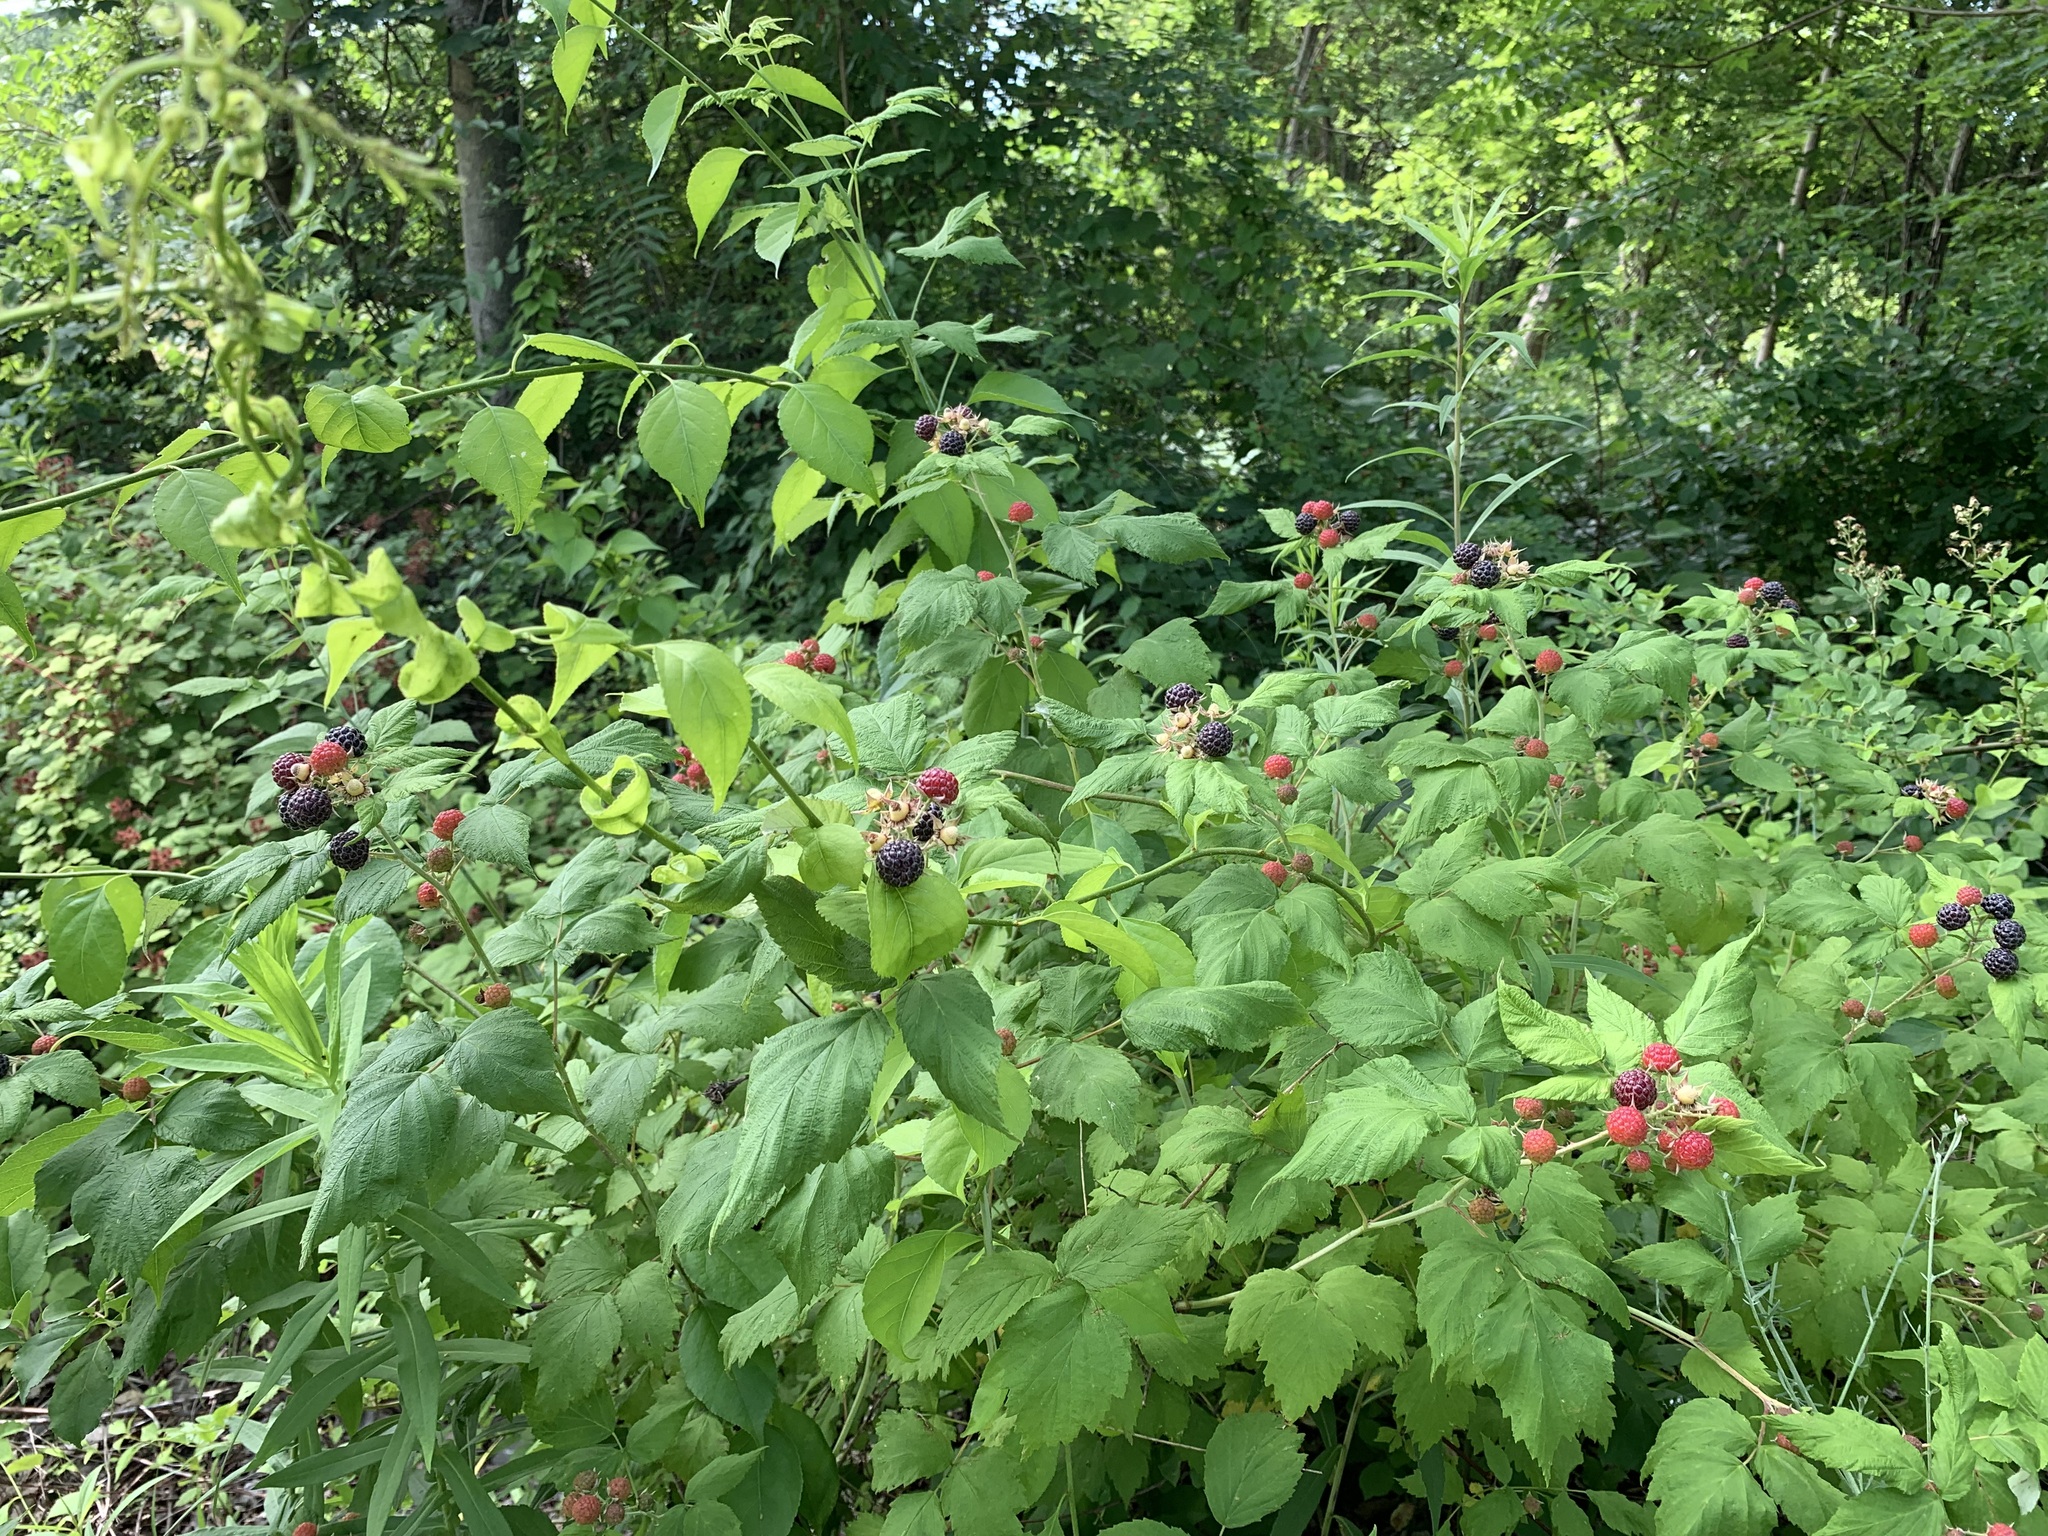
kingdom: Plantae
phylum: Tracheophyta
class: Magnoliopsida
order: Rosales
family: Rosaceae
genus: Rubus
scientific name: Rubus occidentalis
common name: Black raspberry
